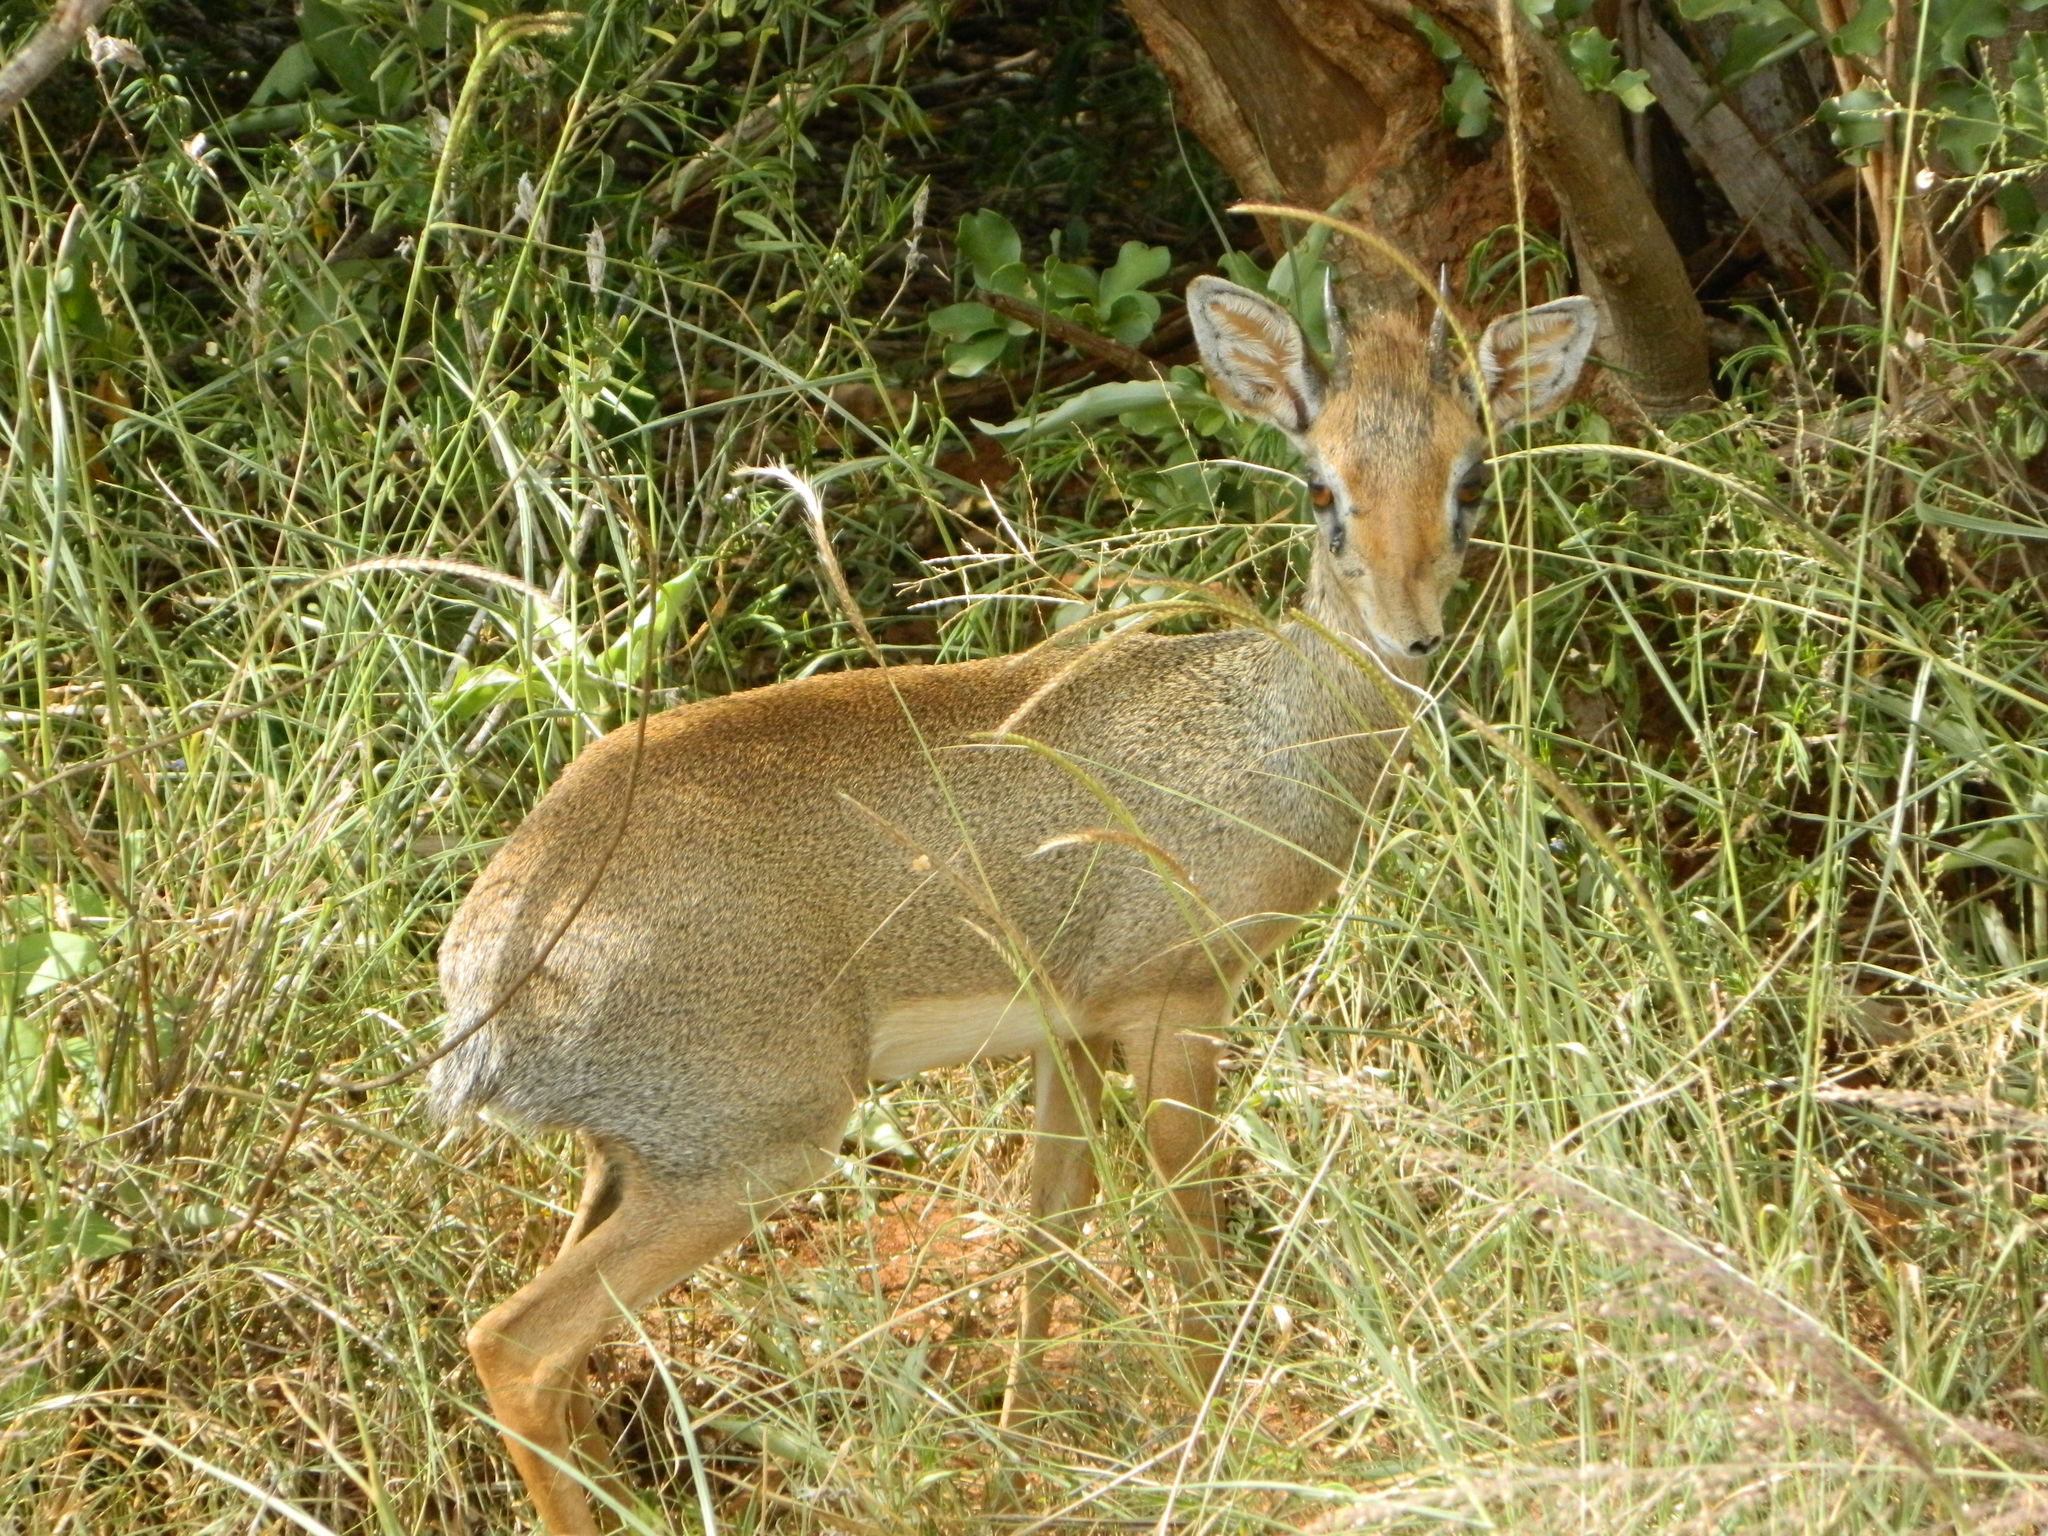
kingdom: Animalia
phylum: Chordata
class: Mammalia
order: Artiodactyla
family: Bovidae
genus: Madoqua
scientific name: Madoqua
